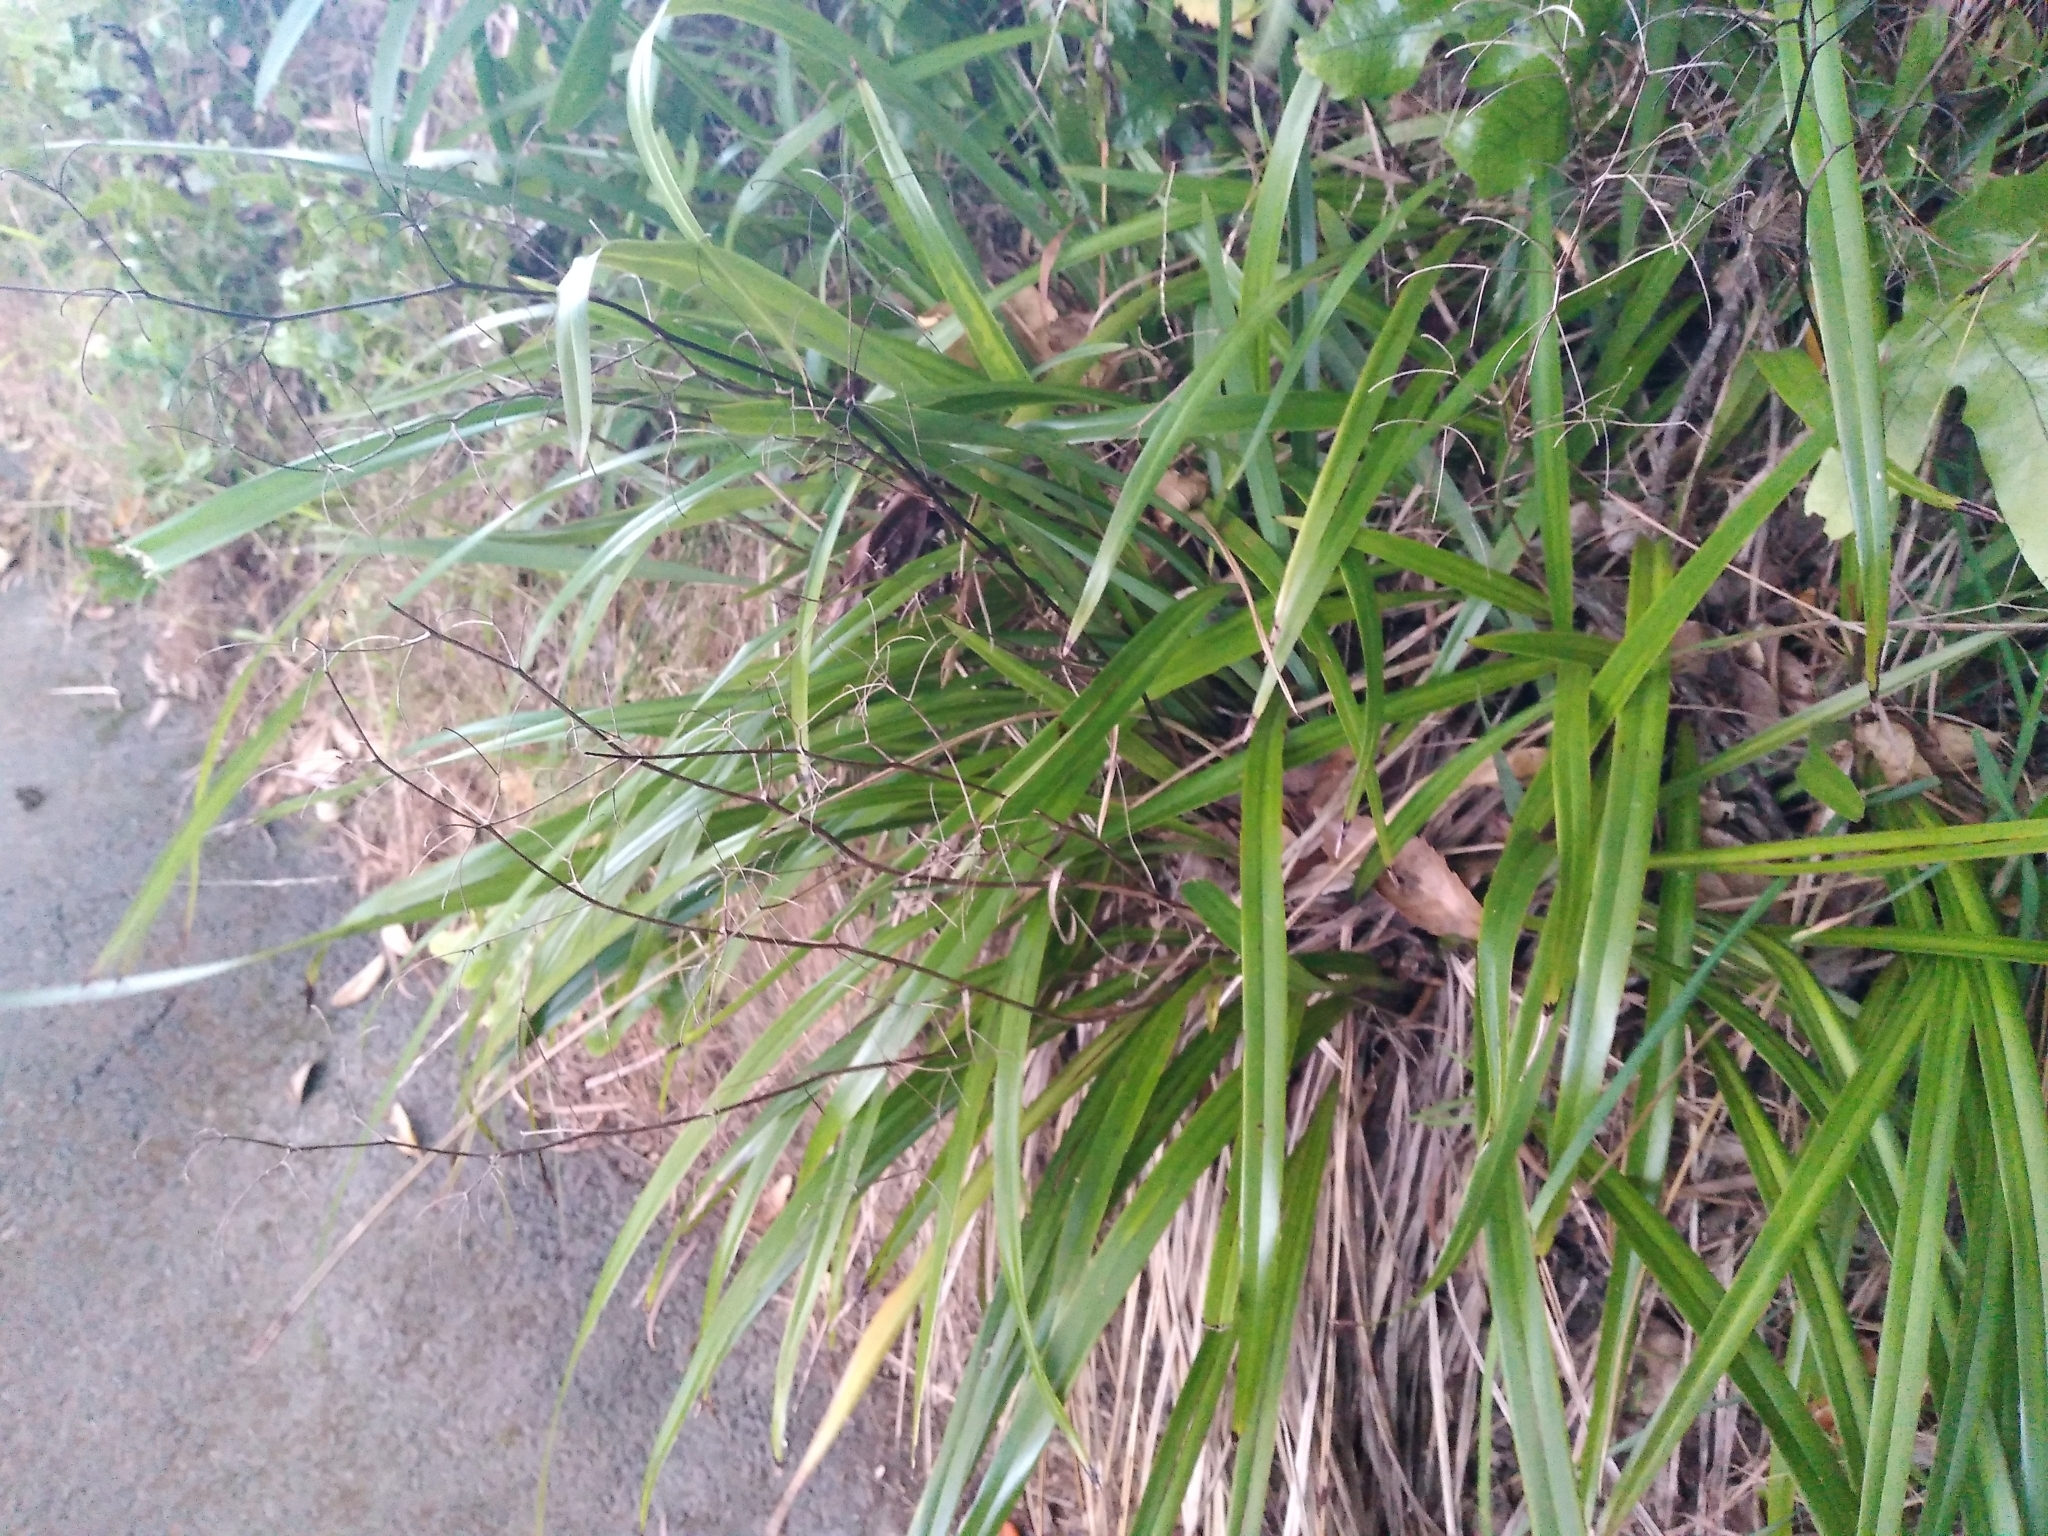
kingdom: Plantae
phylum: Tracheophyta
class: Liliopsida
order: Asparagales
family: Asphodelaceae
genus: Dianella
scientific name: Dianella nigra
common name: New zealand-blueberry
